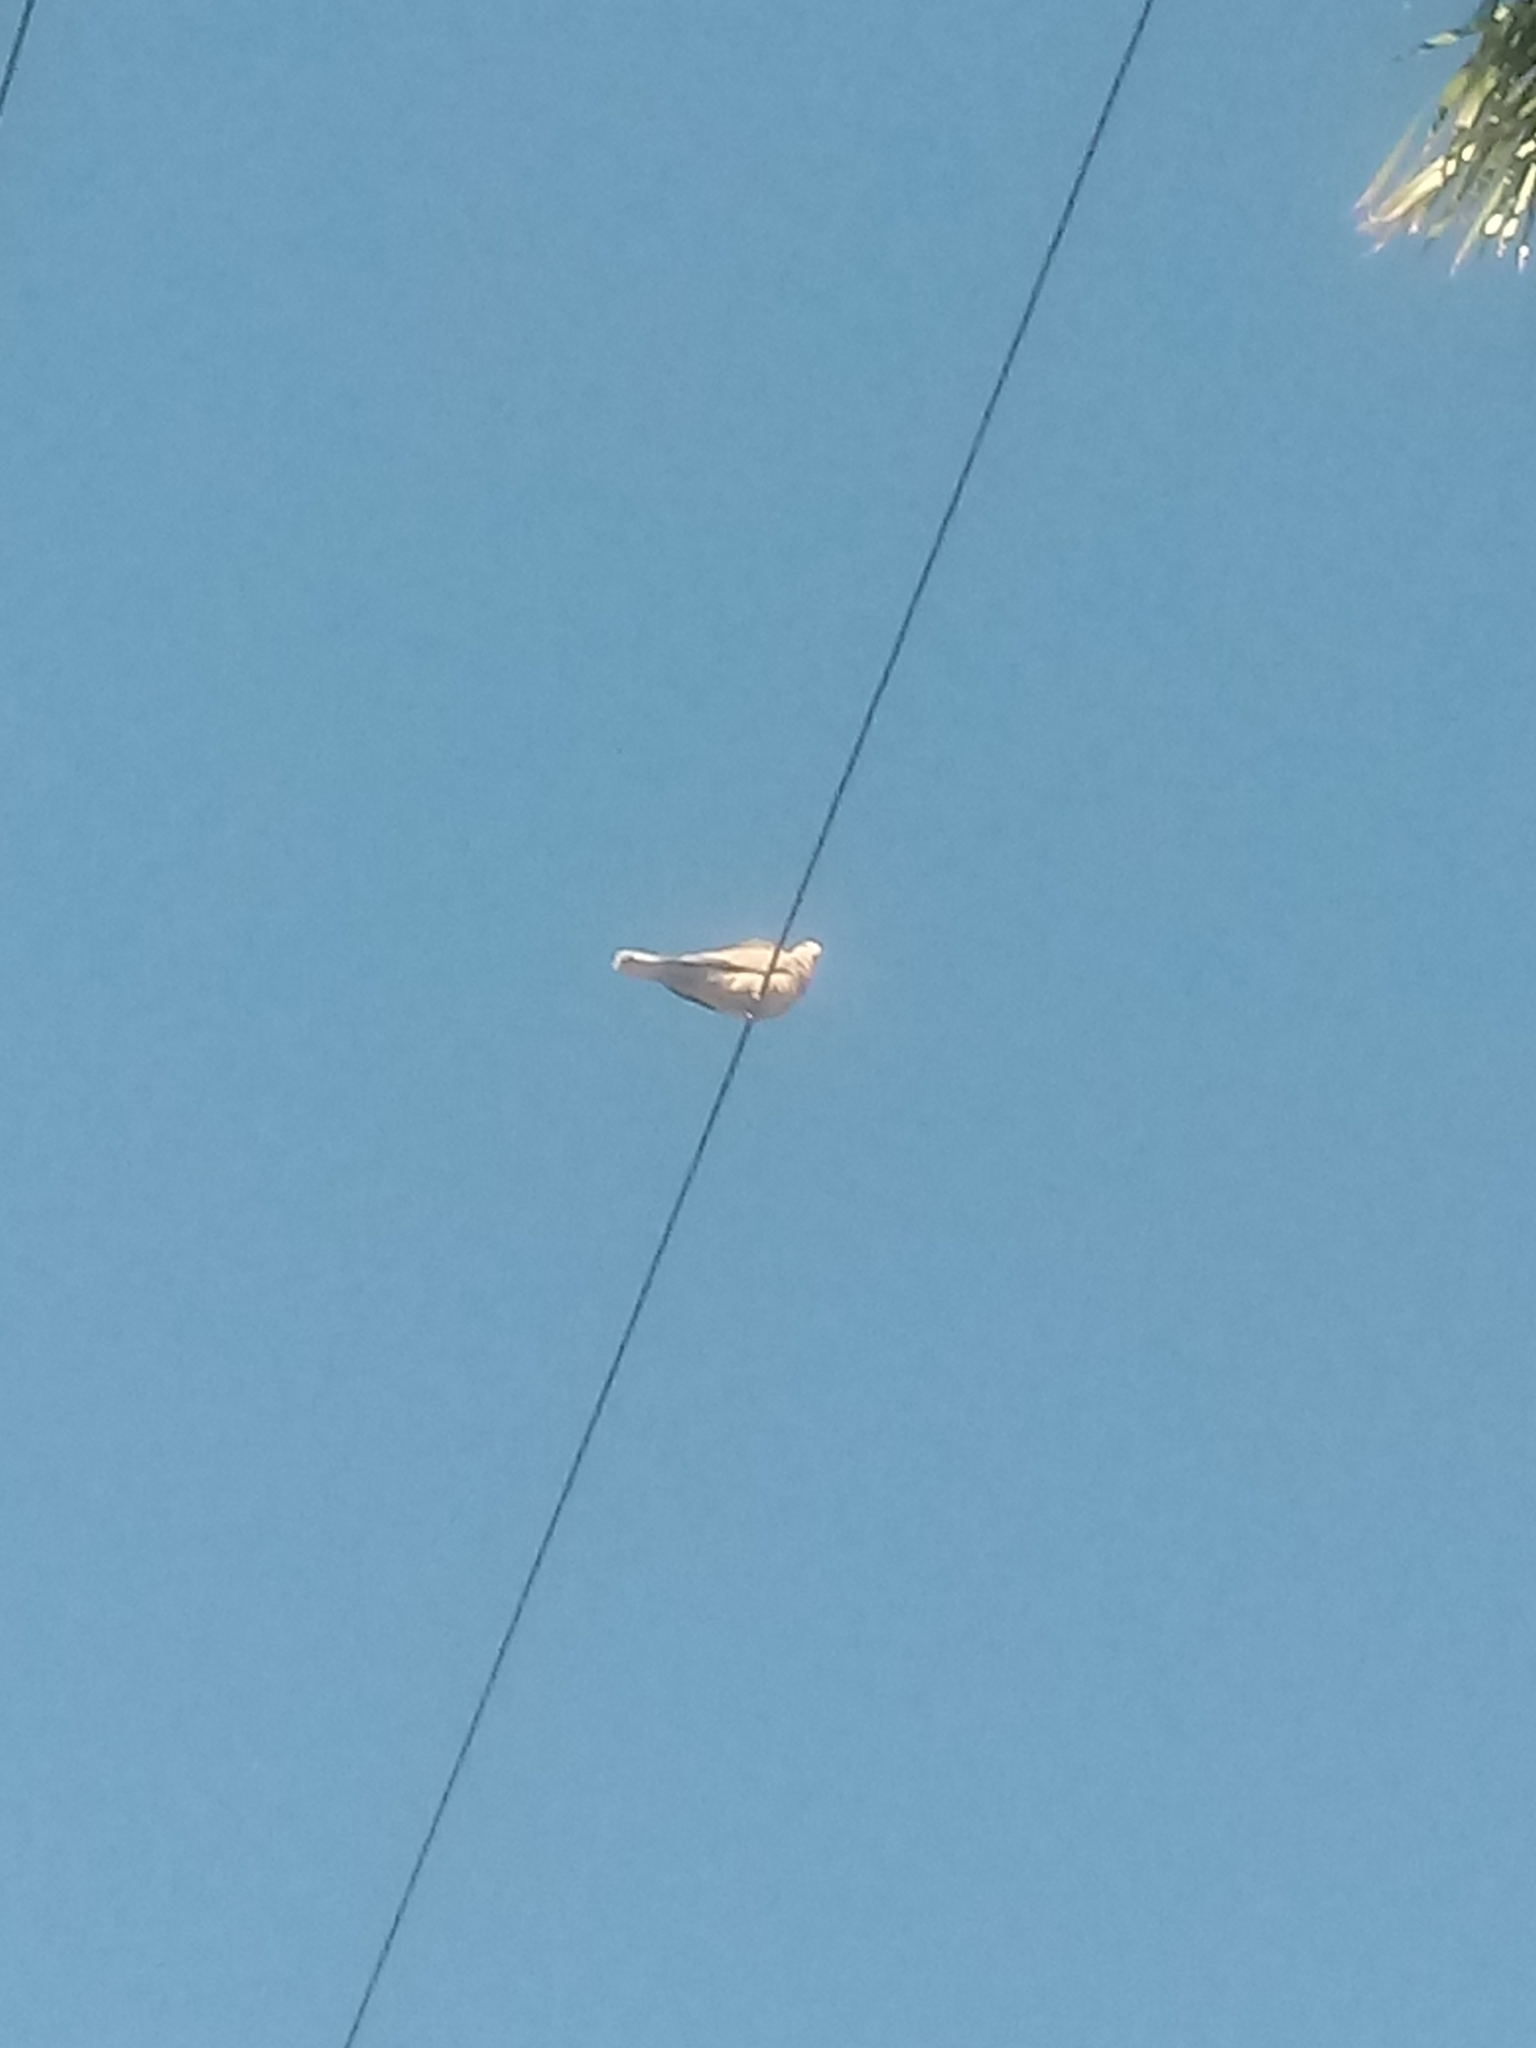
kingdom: Animalia
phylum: Chordata
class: Aves
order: Columbiformes
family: Columbidae
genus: Streptopelia
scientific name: Streptopelia decaocto
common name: Eurasian collared dove
